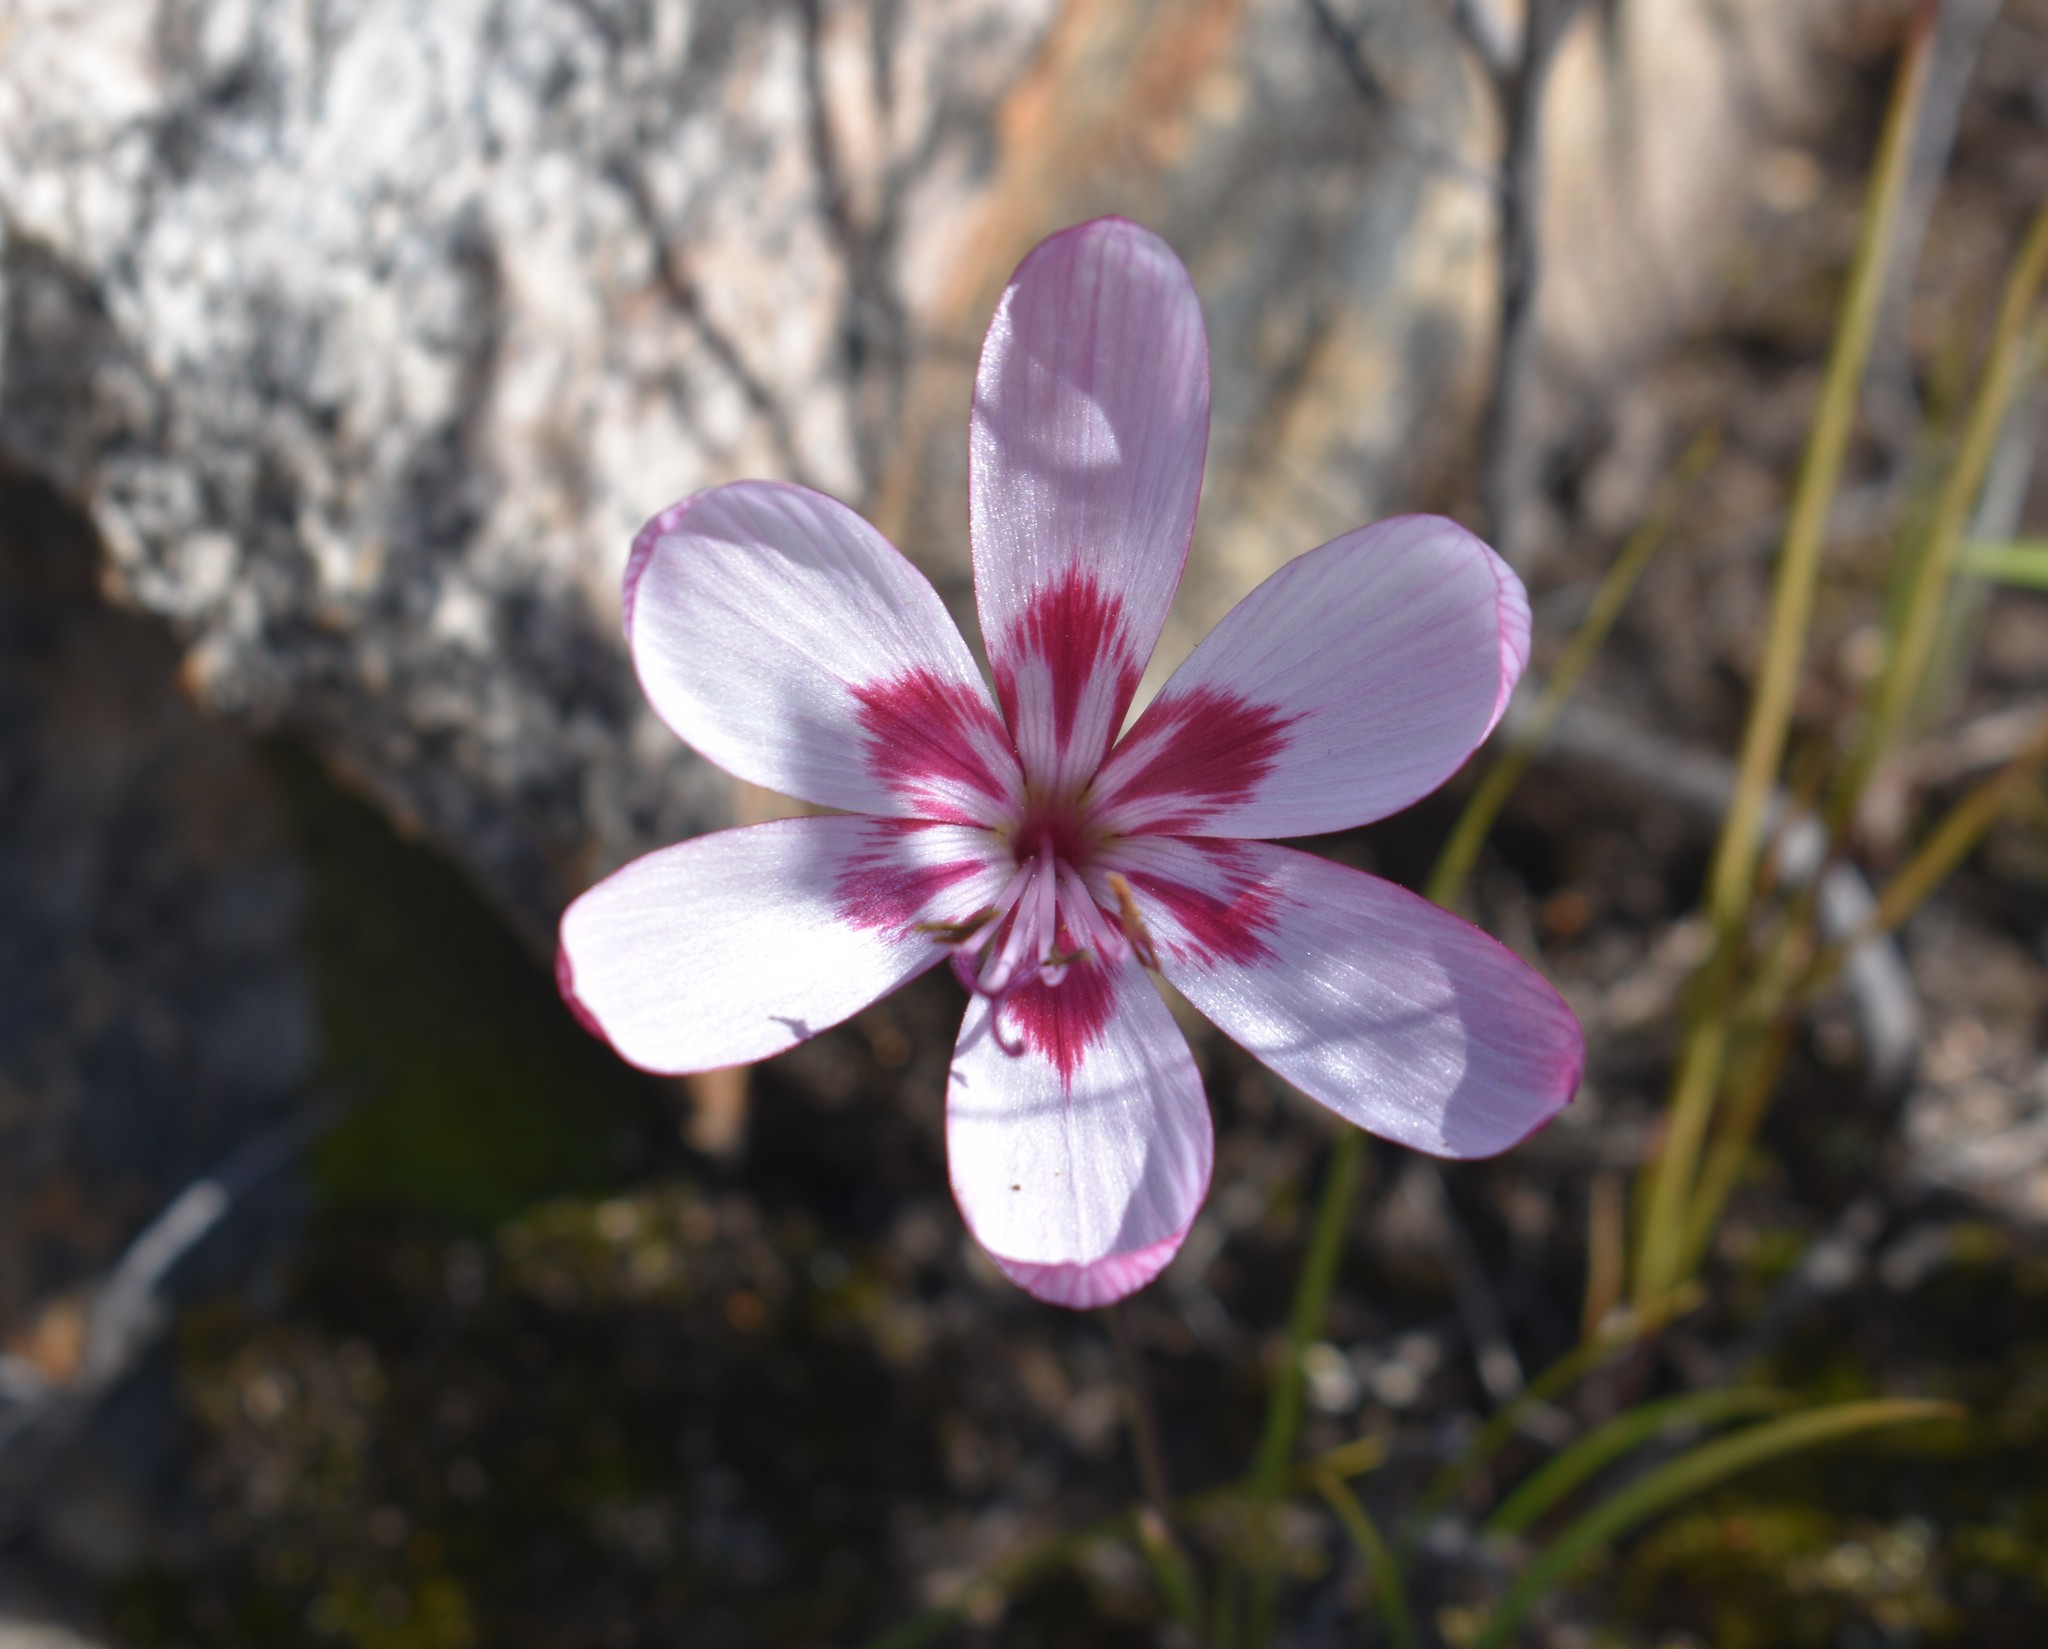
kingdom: Plantae
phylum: Tracheophyta
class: Liliopsida
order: Asparagales
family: Iridaceae
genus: Geissorhiza
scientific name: Geissorhiza roseoalba
